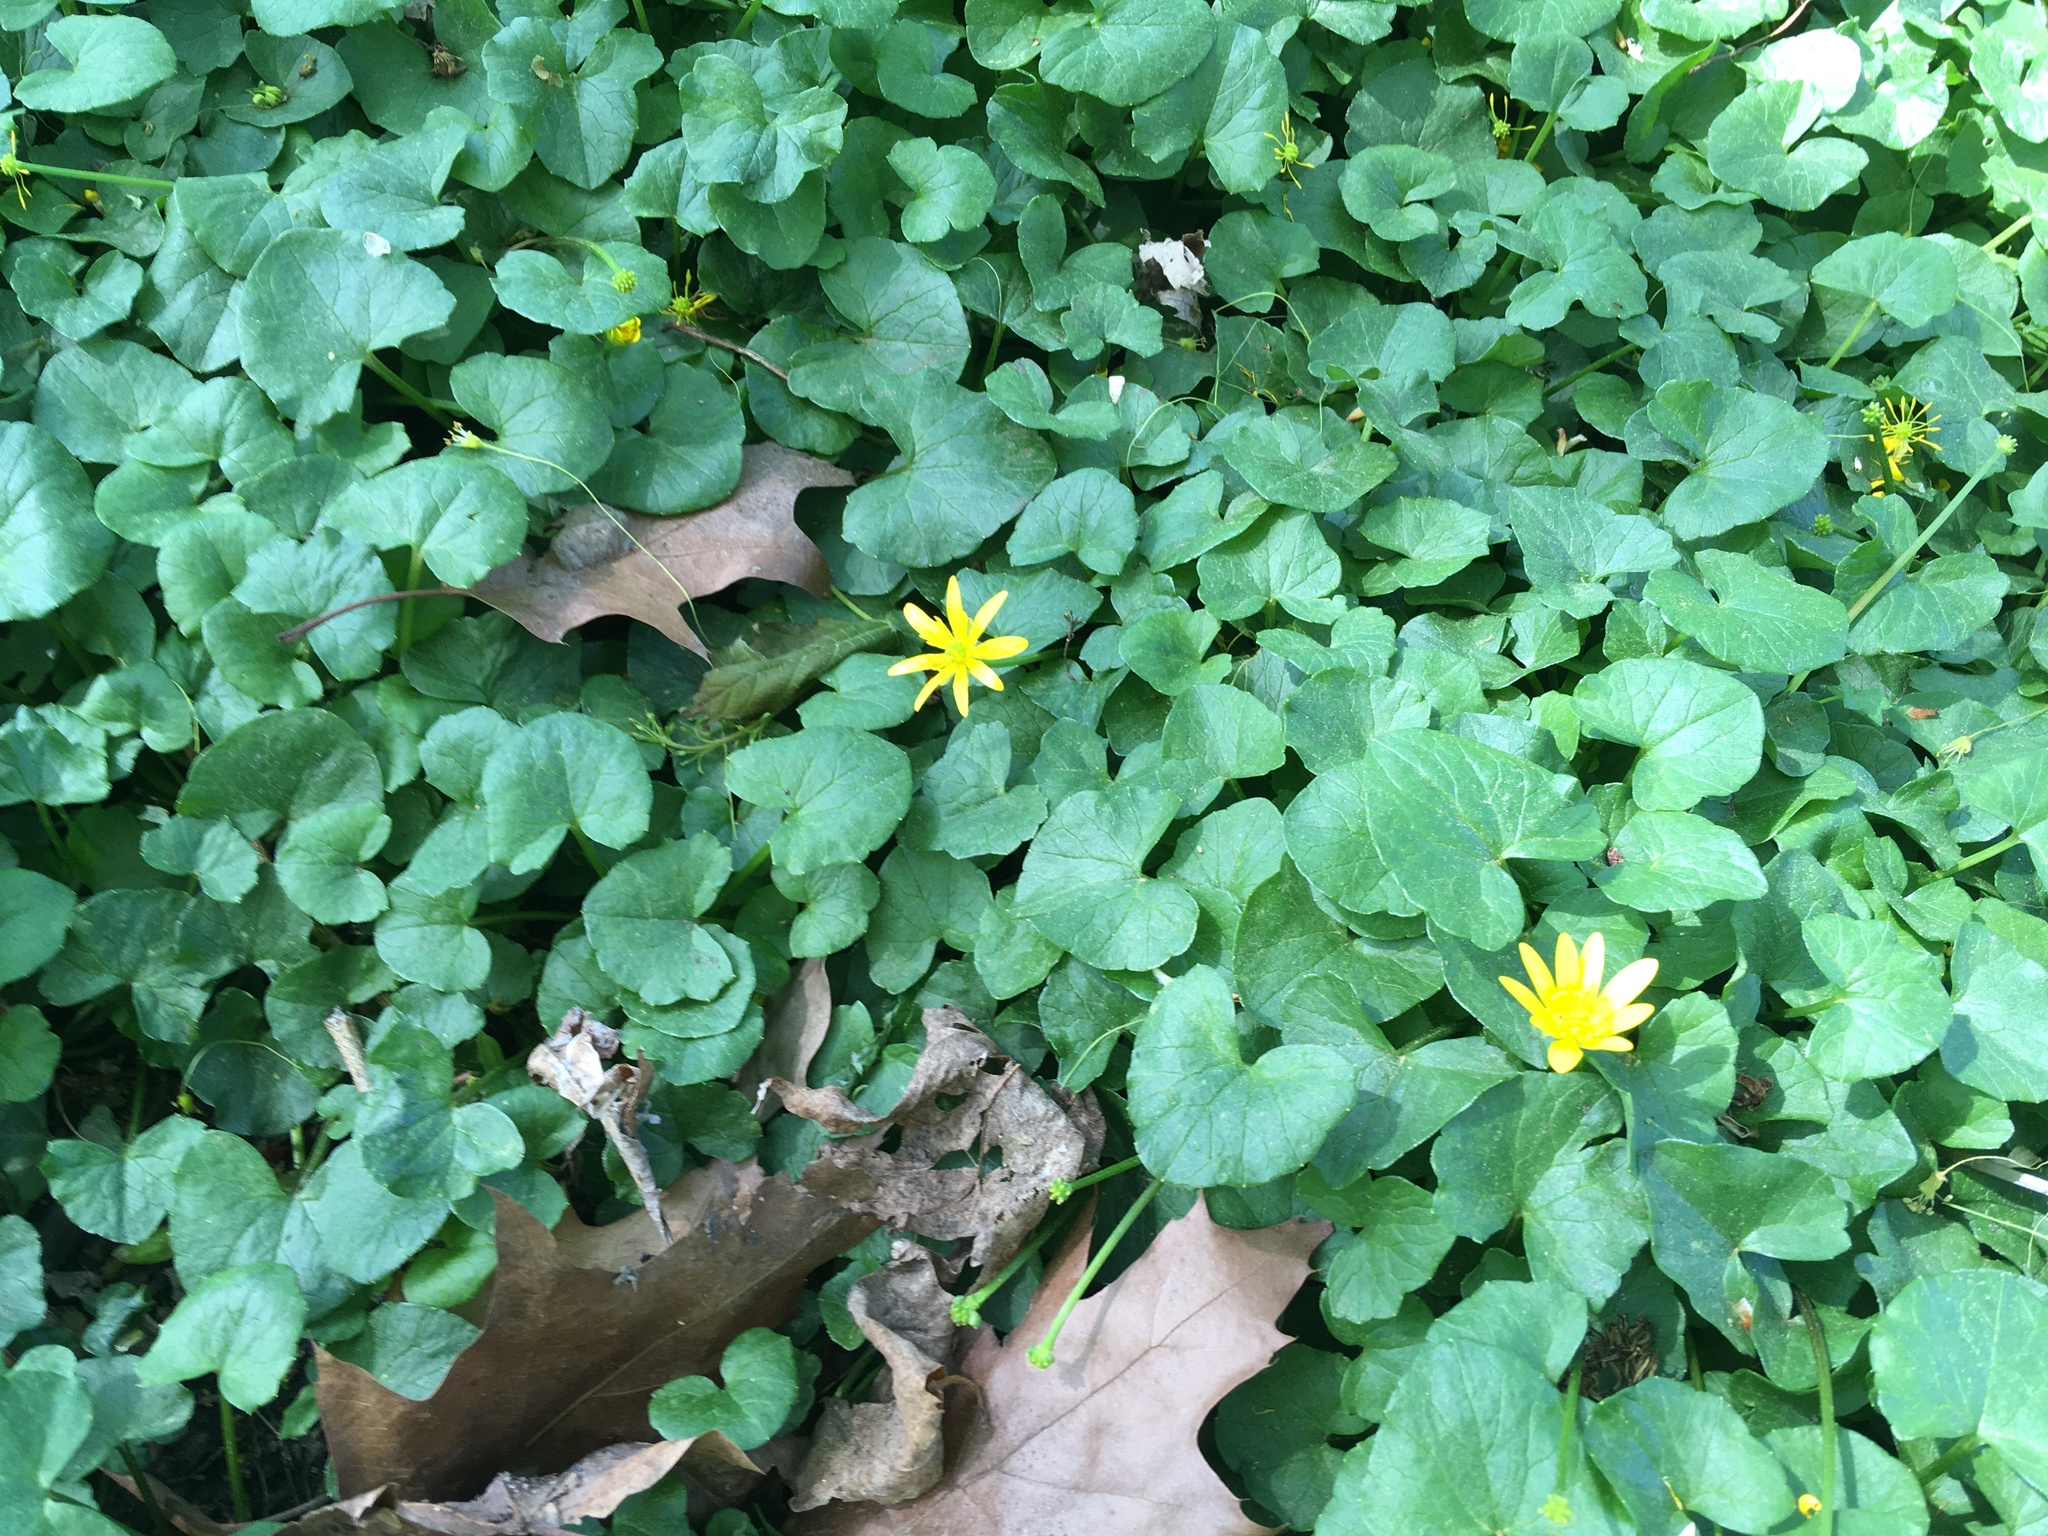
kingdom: Plantae
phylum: Tracheophyta
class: Magnoliopsida
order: Ranunculales
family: Ranunculaceae
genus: Ficaria
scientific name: Ficaria verna
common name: Lesser celandine
